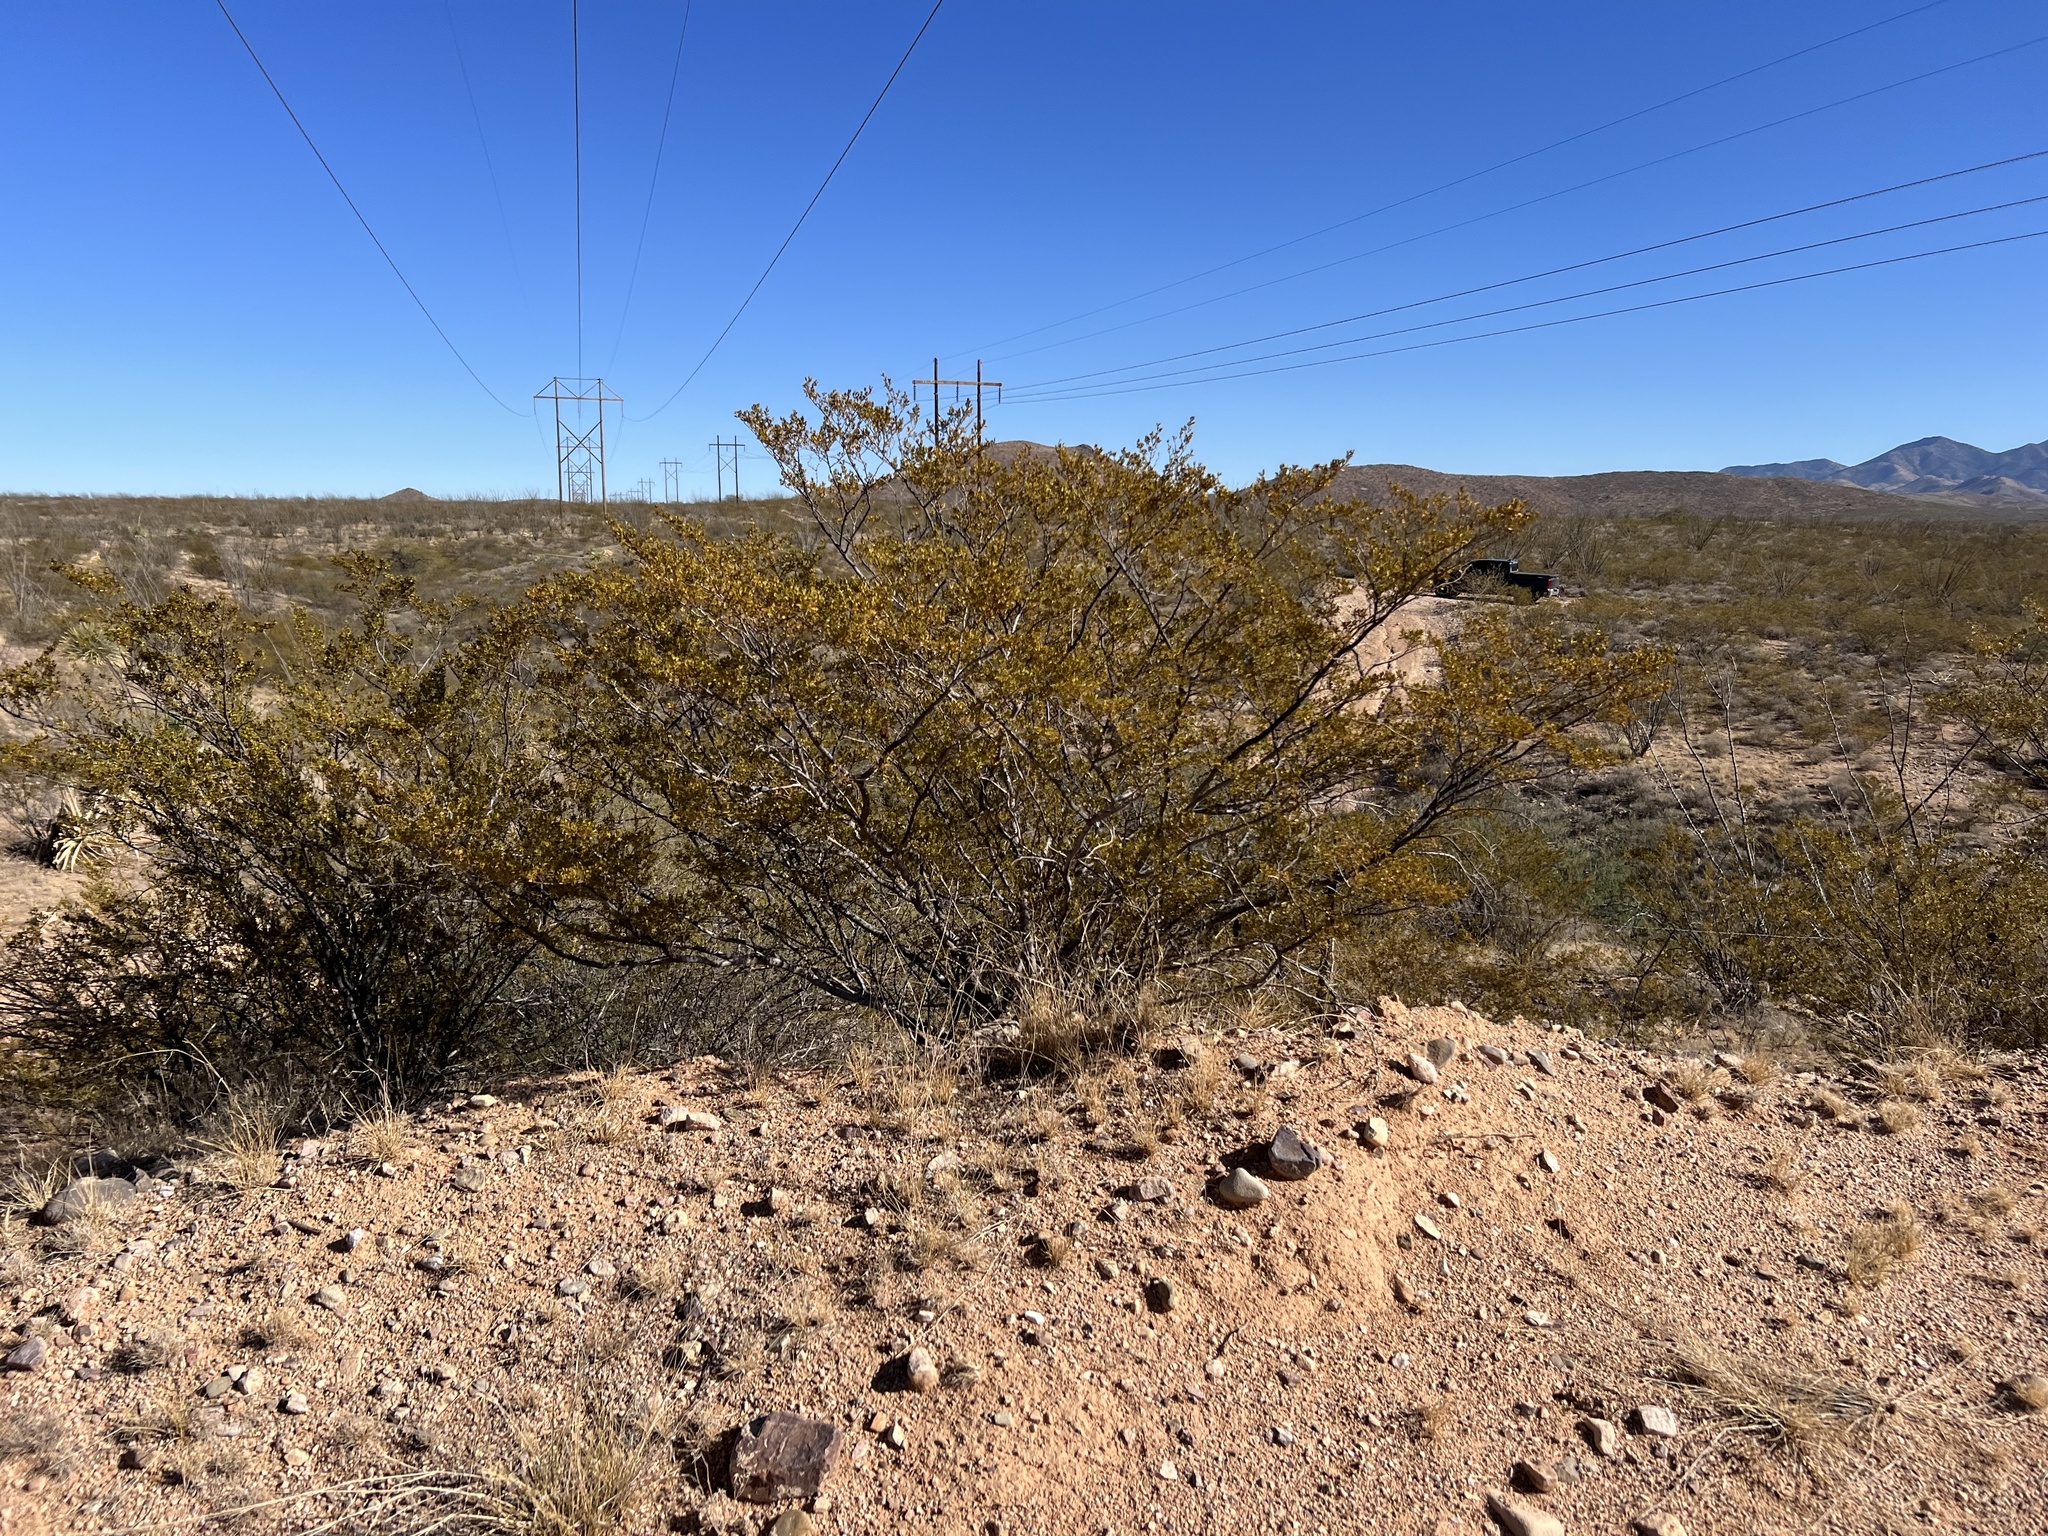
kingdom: Plantae
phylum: Tracheophyta
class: Magnoliopsida
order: Zygophyllales
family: Zygophyllaceae
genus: Larrea
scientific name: Larrea tridentata
